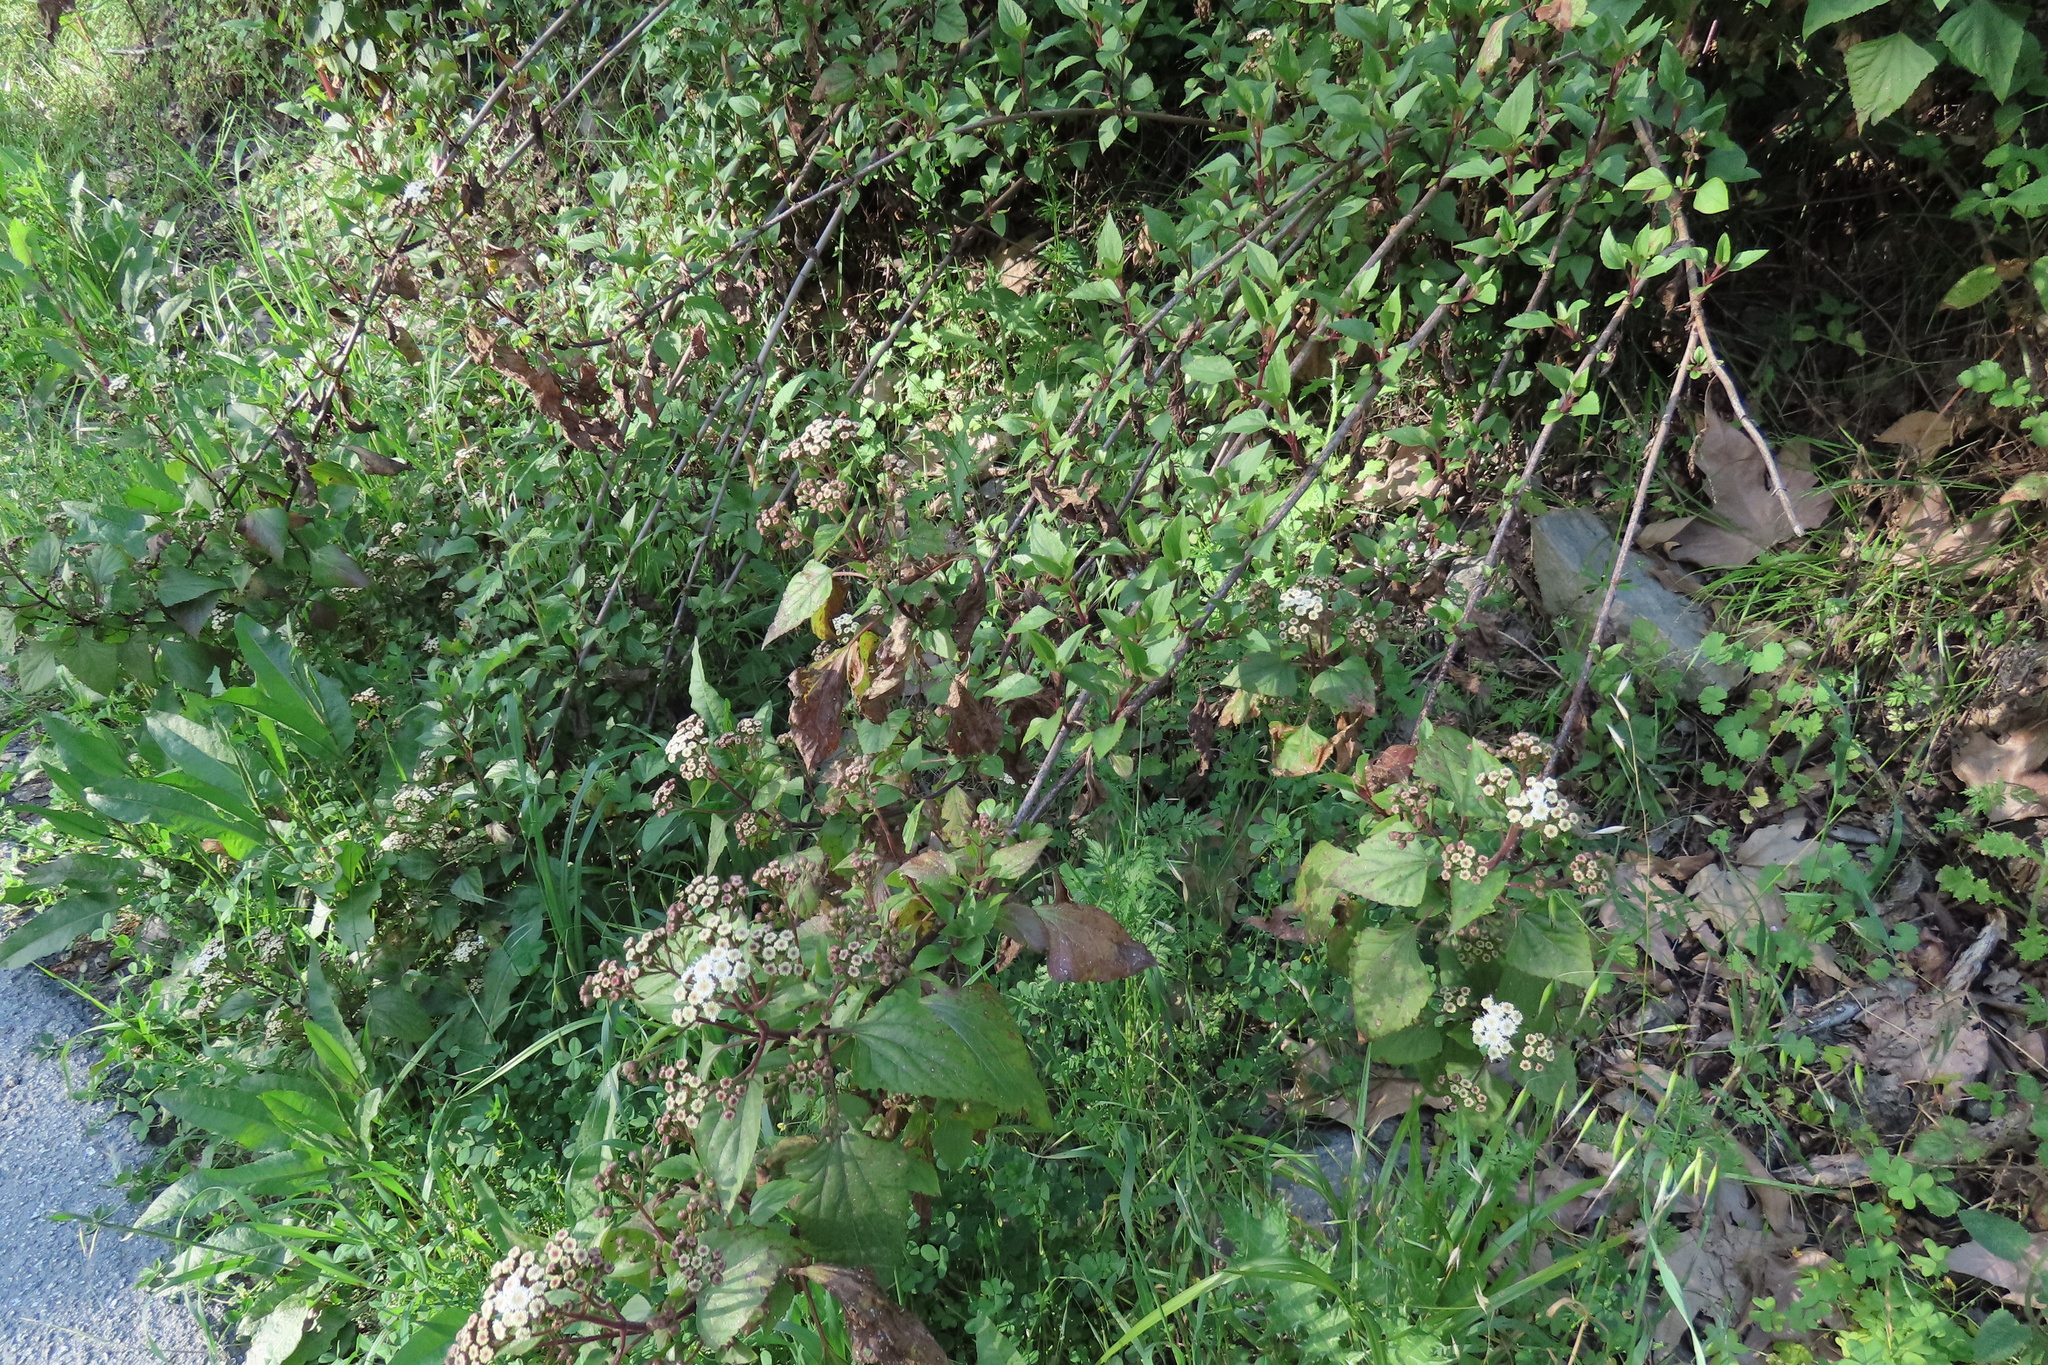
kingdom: Plantae
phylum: Tracheophyta
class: Magnoliopsida
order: Asterales
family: Asteraceae
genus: Ageratina
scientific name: Ageratina adenophora
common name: Sticky snakeroot
